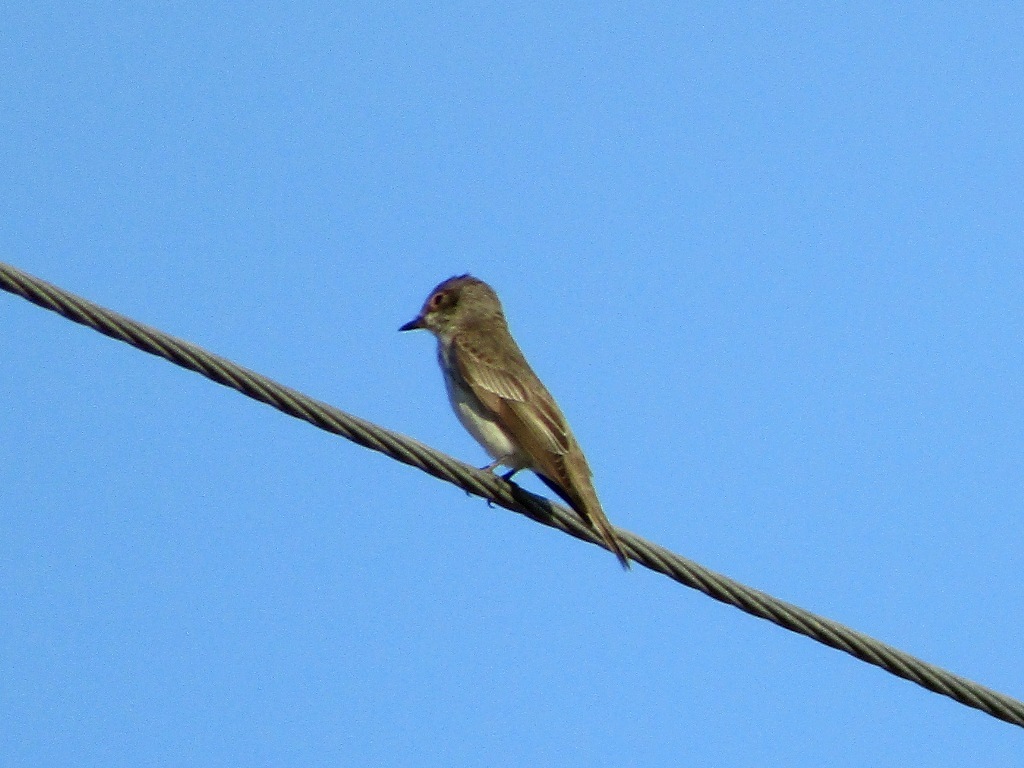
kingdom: Animalia
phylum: Chordata
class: Aves
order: Passeriformes
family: Muscicapidae
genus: Muscicapa
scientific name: Muscicapa striata
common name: Spotted flycatcher
